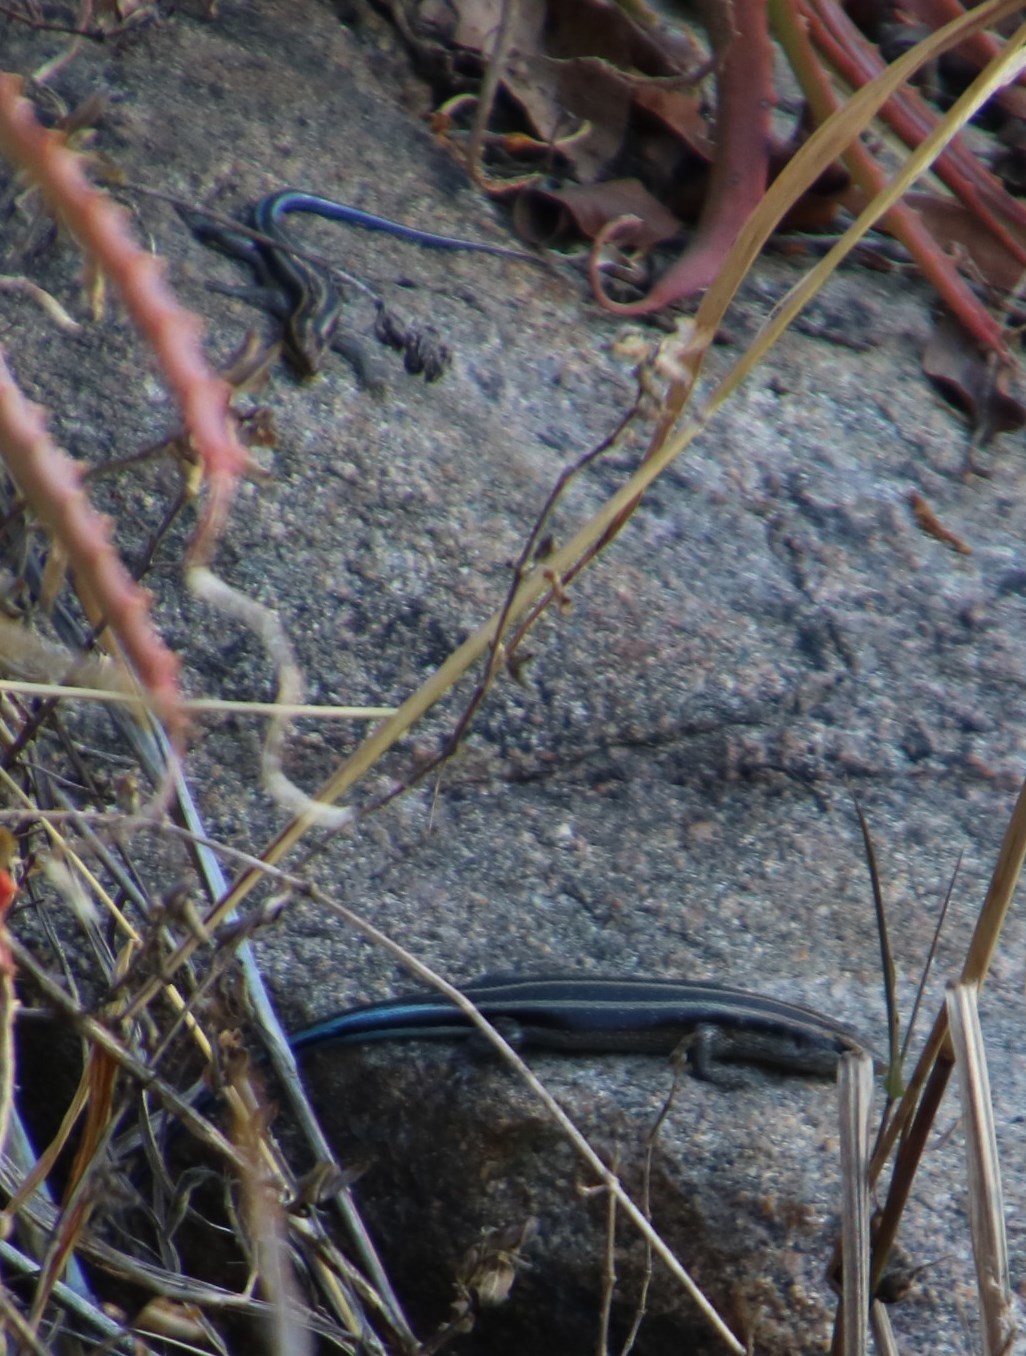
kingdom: Animalia
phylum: Chordata
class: Squamata
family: Scincidae
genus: Trachylepis
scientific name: Trachylepis margaritifera
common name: Rainbow skink
